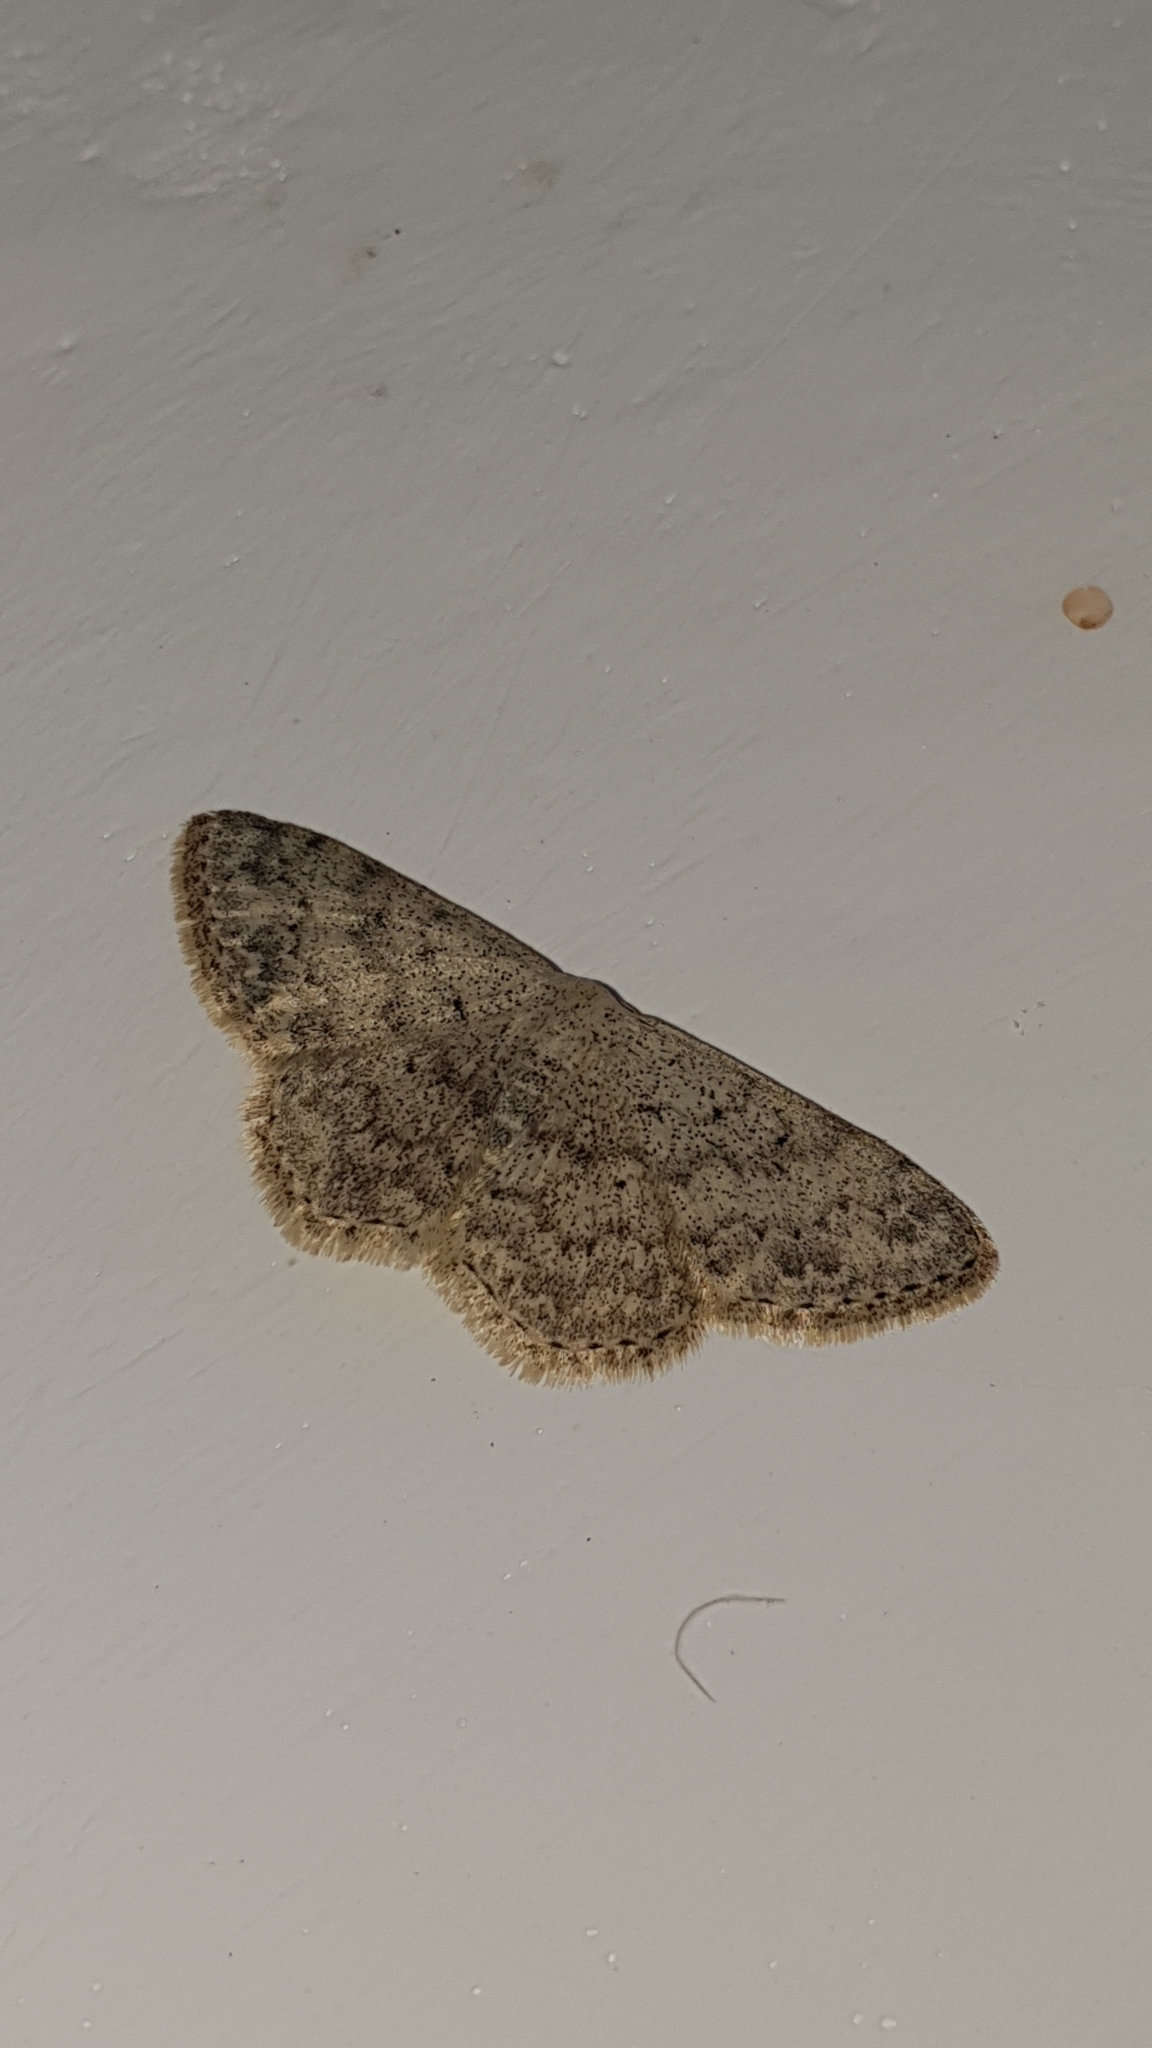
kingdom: Animalia
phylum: Arthropoda
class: Insecta
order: Lepidoptera
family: Geometridae
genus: Scopula
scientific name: Scopula marginepunctata
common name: Mullein wave
